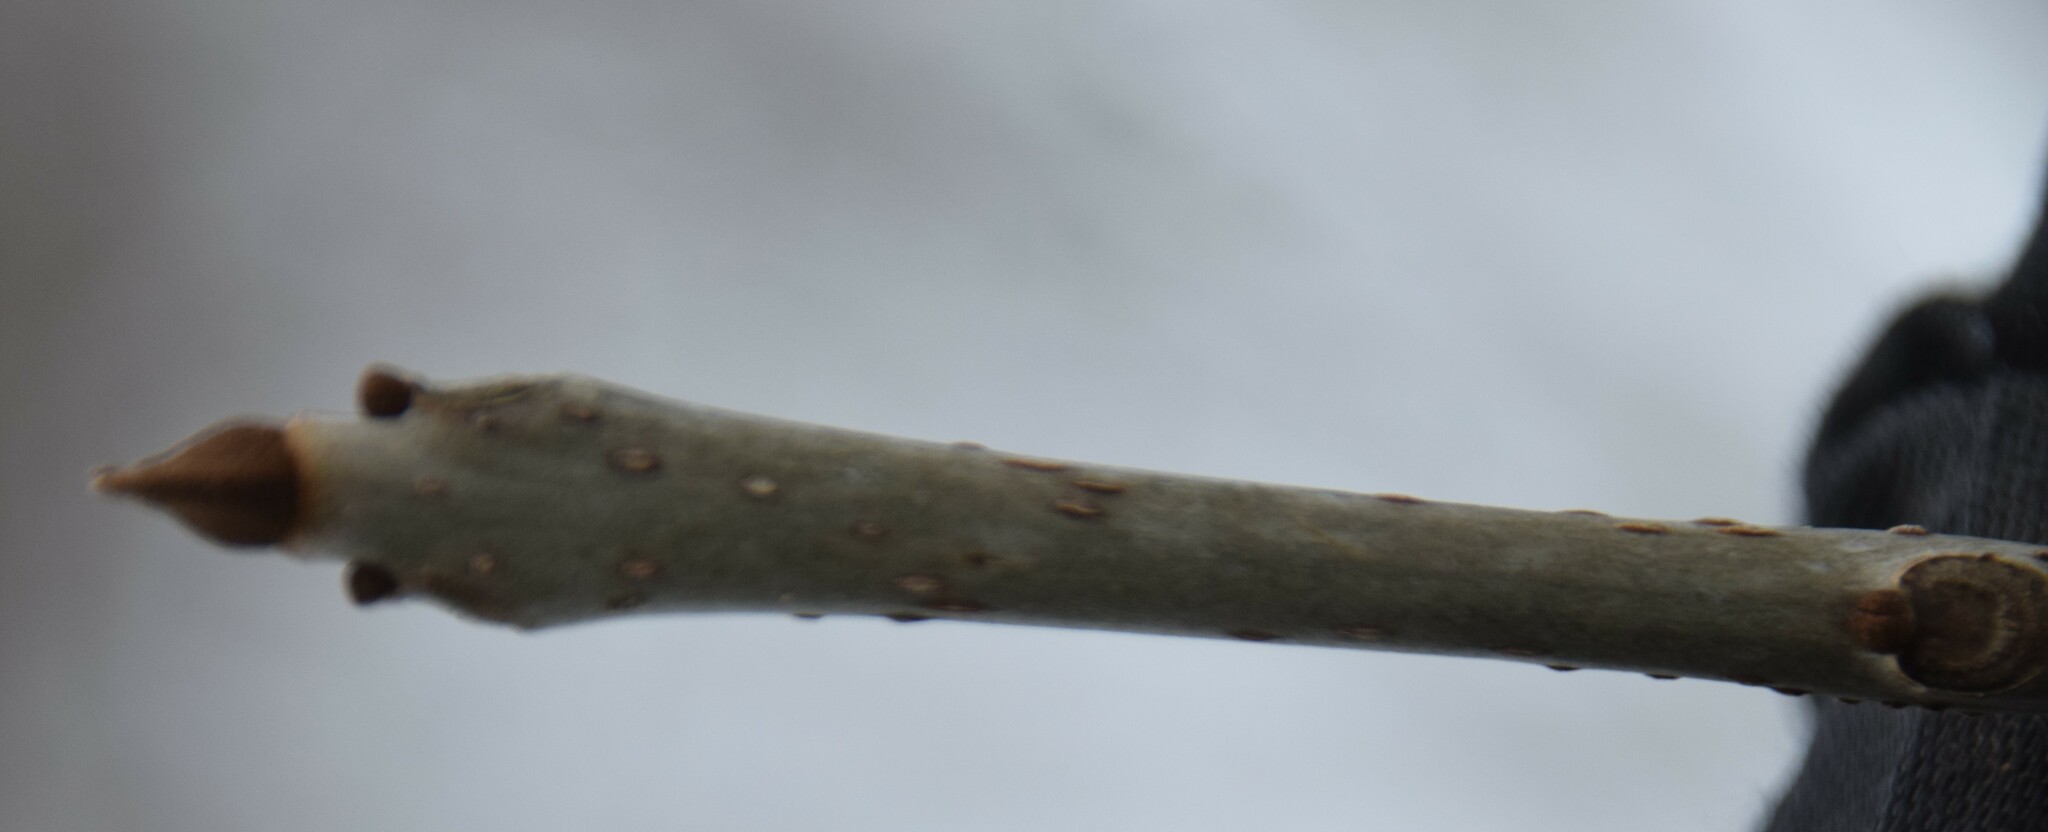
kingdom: Plantae
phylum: Tracheophyta
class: Magnoliopsida
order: Lamiales
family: Oleaceae
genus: Fraxinus
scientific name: Fraxinus nigra
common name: Black ash
